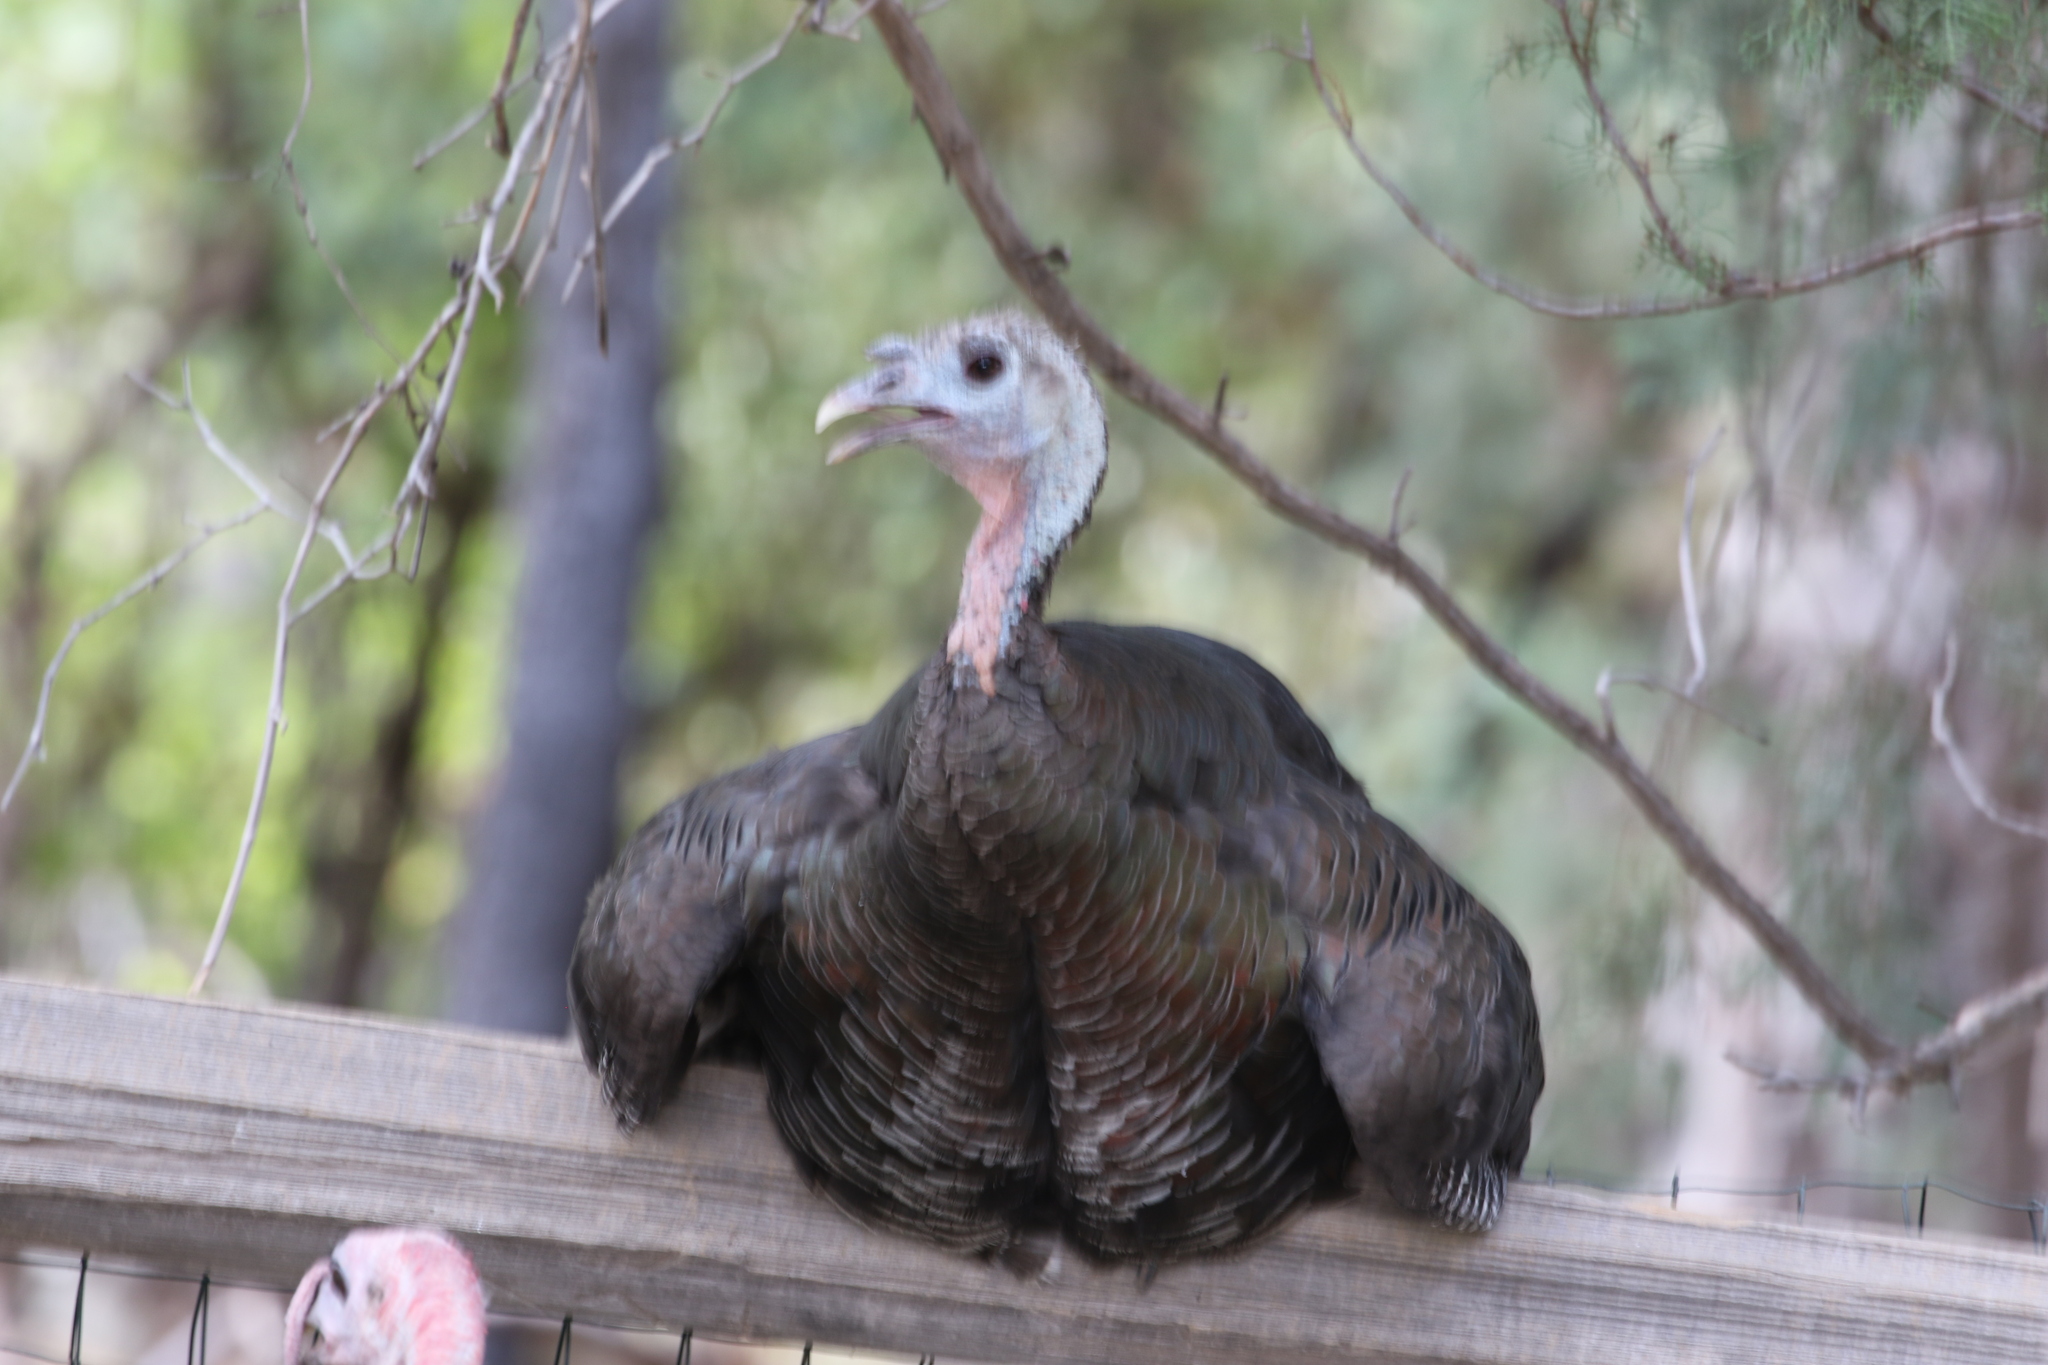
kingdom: Animalia
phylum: Chordata
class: Aves
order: Galliformes
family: Phasianidae
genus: Meleagris
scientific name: Meleagris gallopavo
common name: Wild turkey
